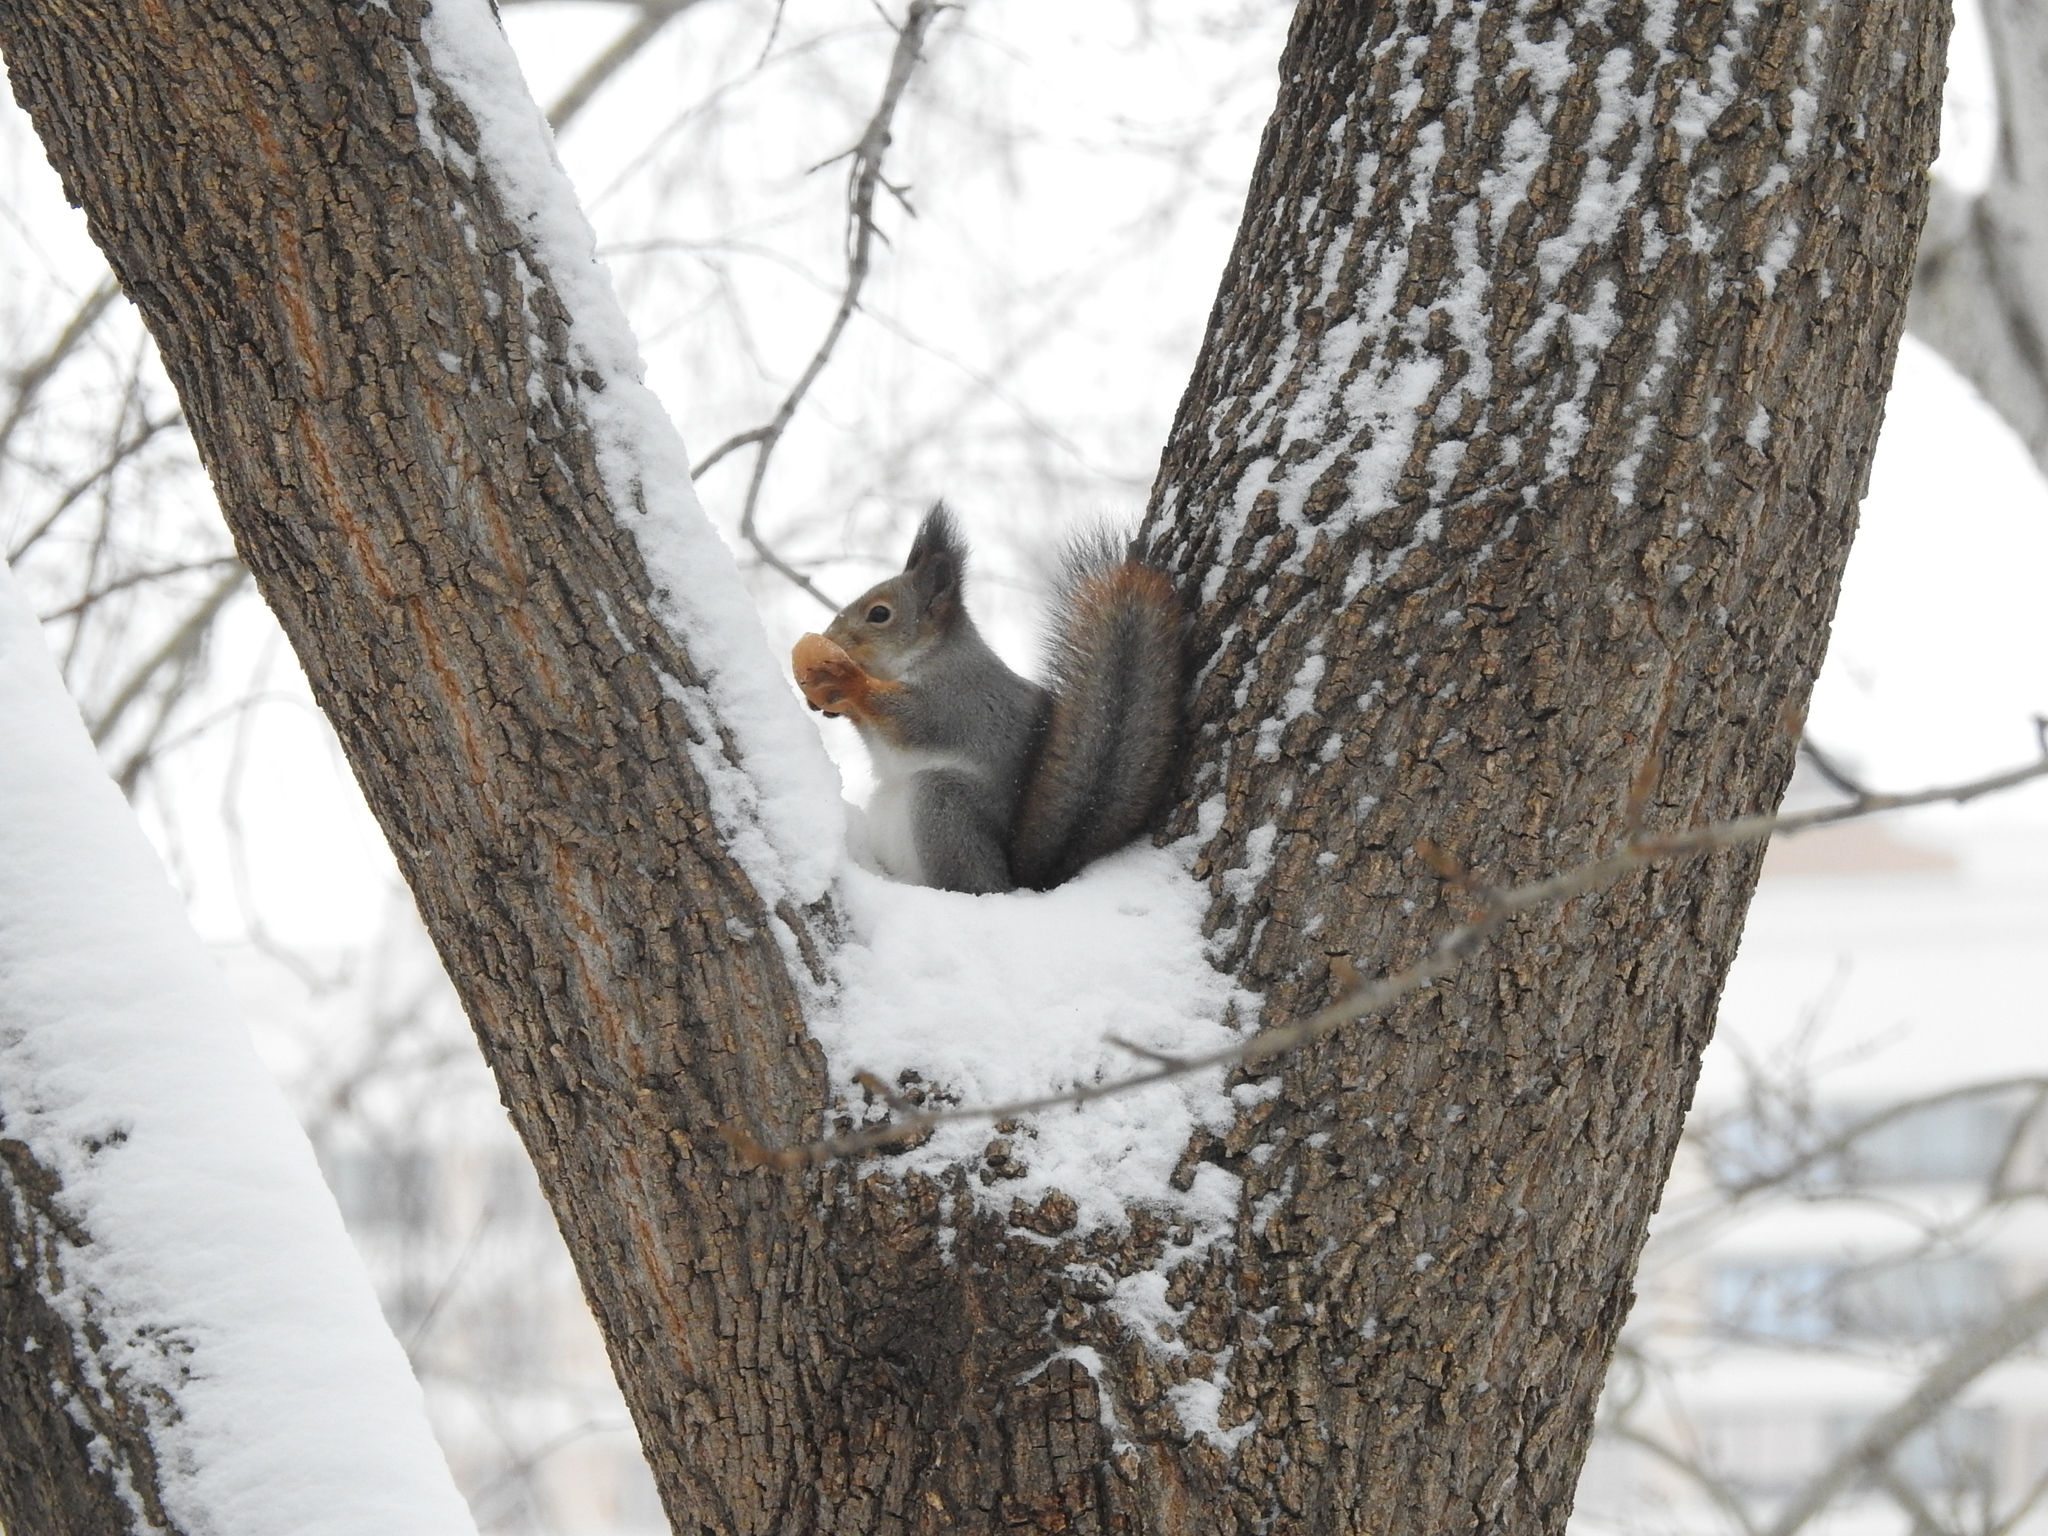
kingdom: Animalia
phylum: Chordata
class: Mammalia
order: Rodentia
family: Sciuridae
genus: Sciurus
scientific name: Sciurus vulgaris
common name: Eurasian red squirrel
